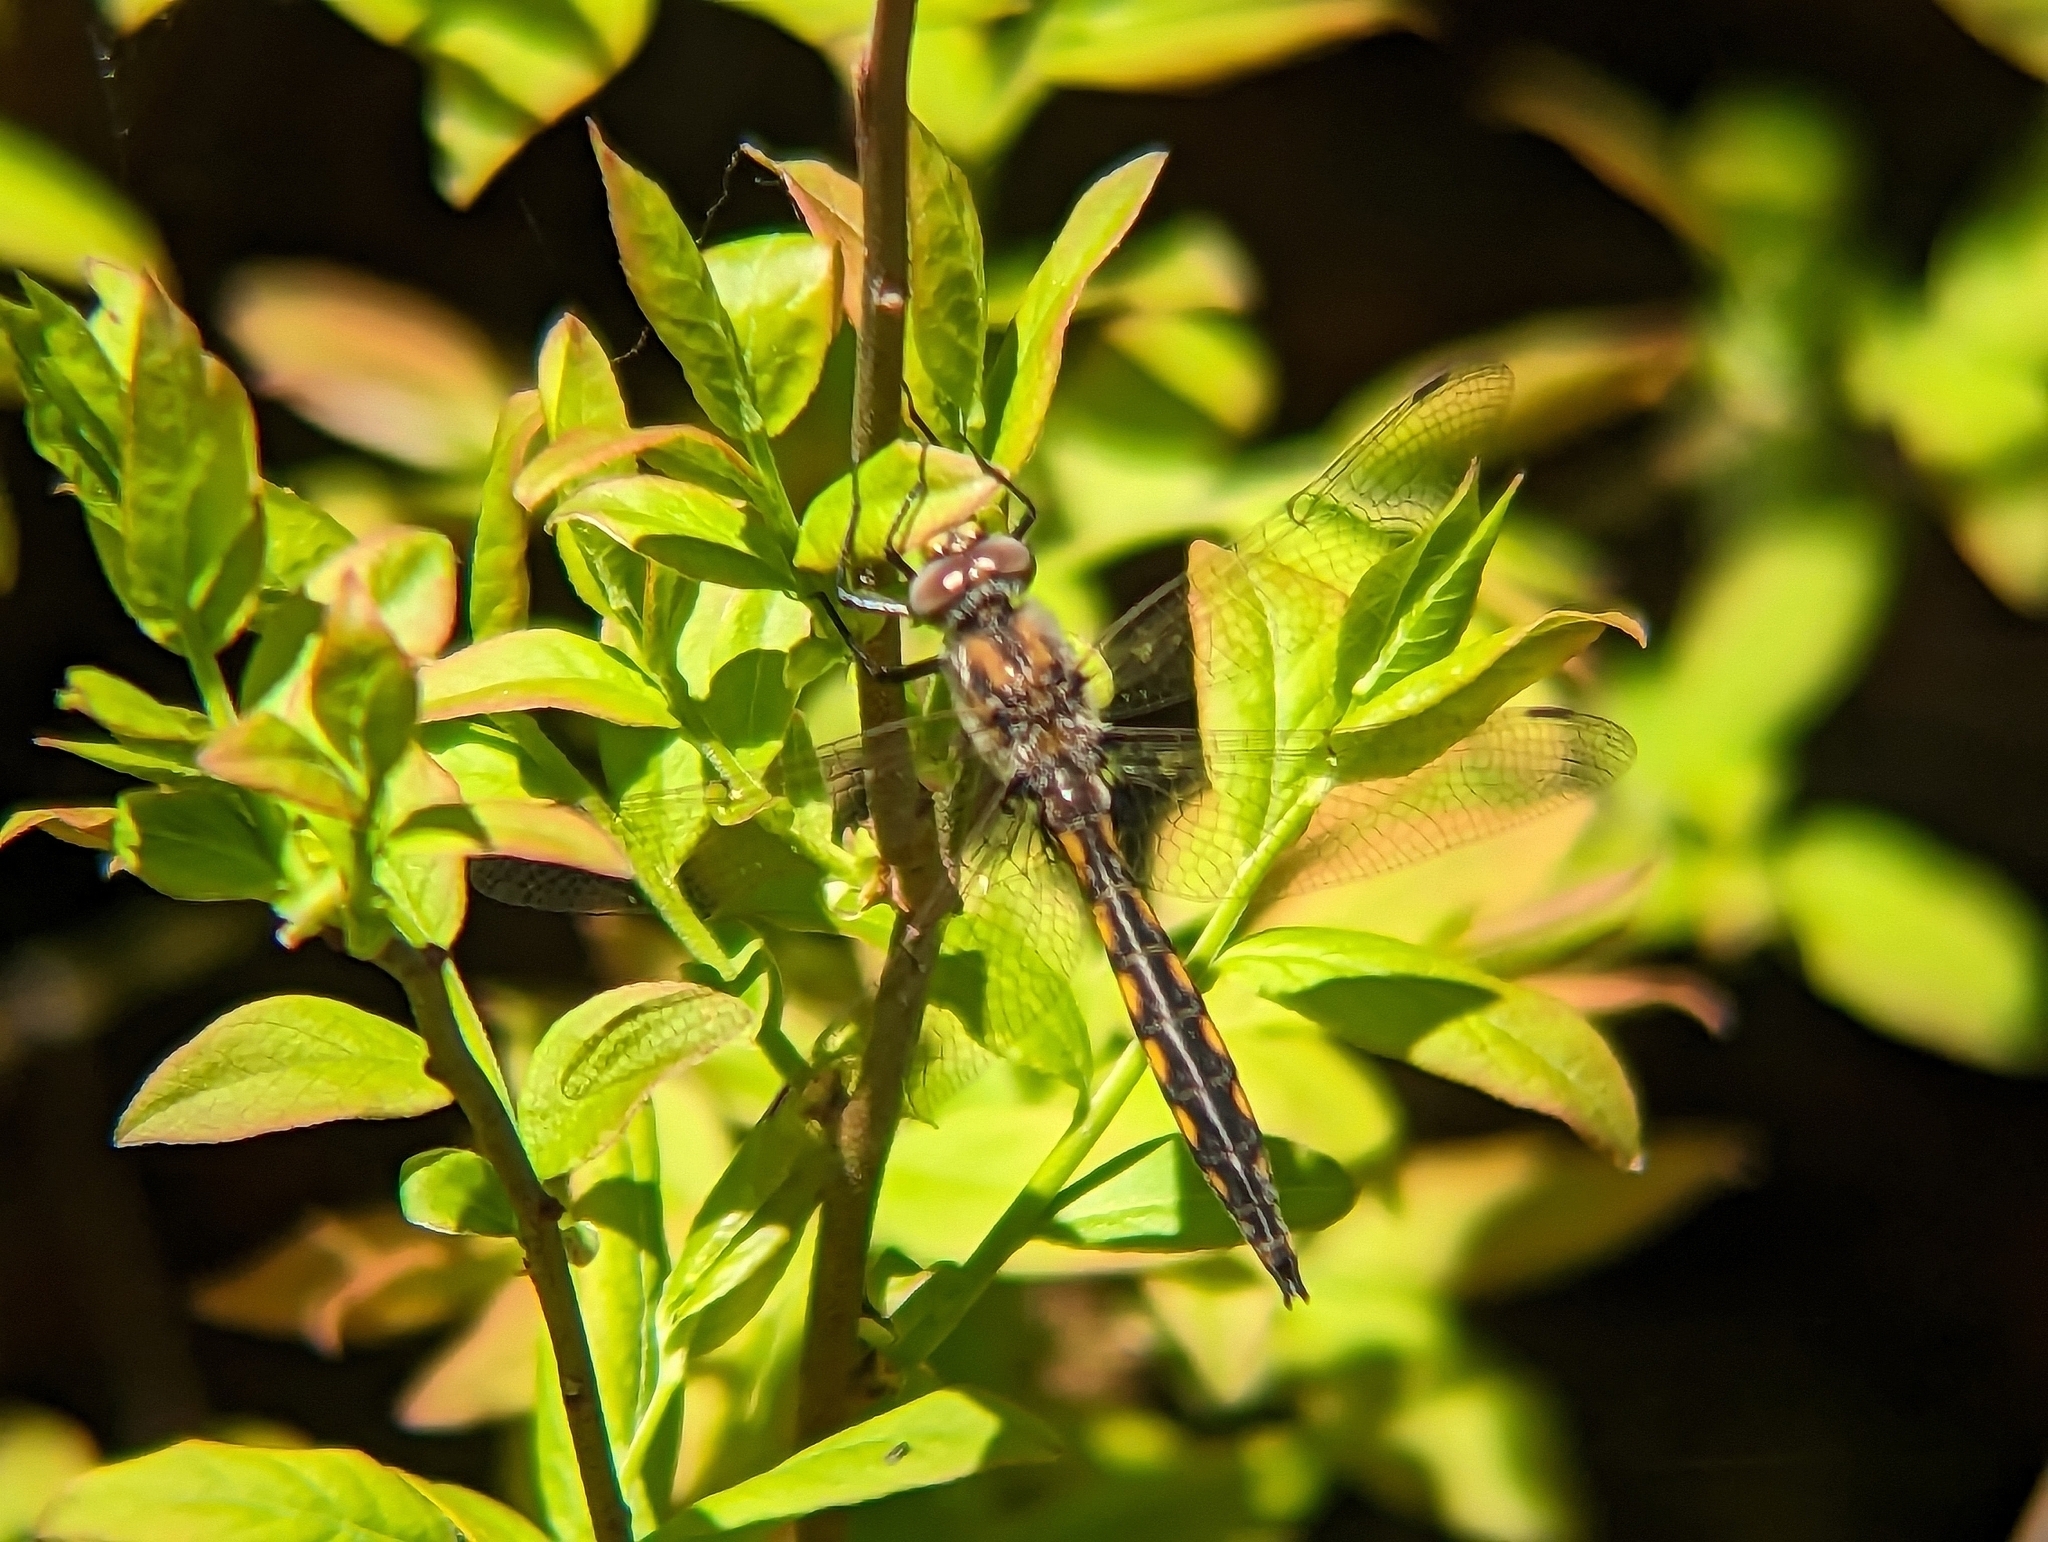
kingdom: Animalia
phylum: Arthropoda
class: Insecta
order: Odonata
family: Corduliidae
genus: Epitheca
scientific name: Epitheca canis
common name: Beaverpond baskettail
